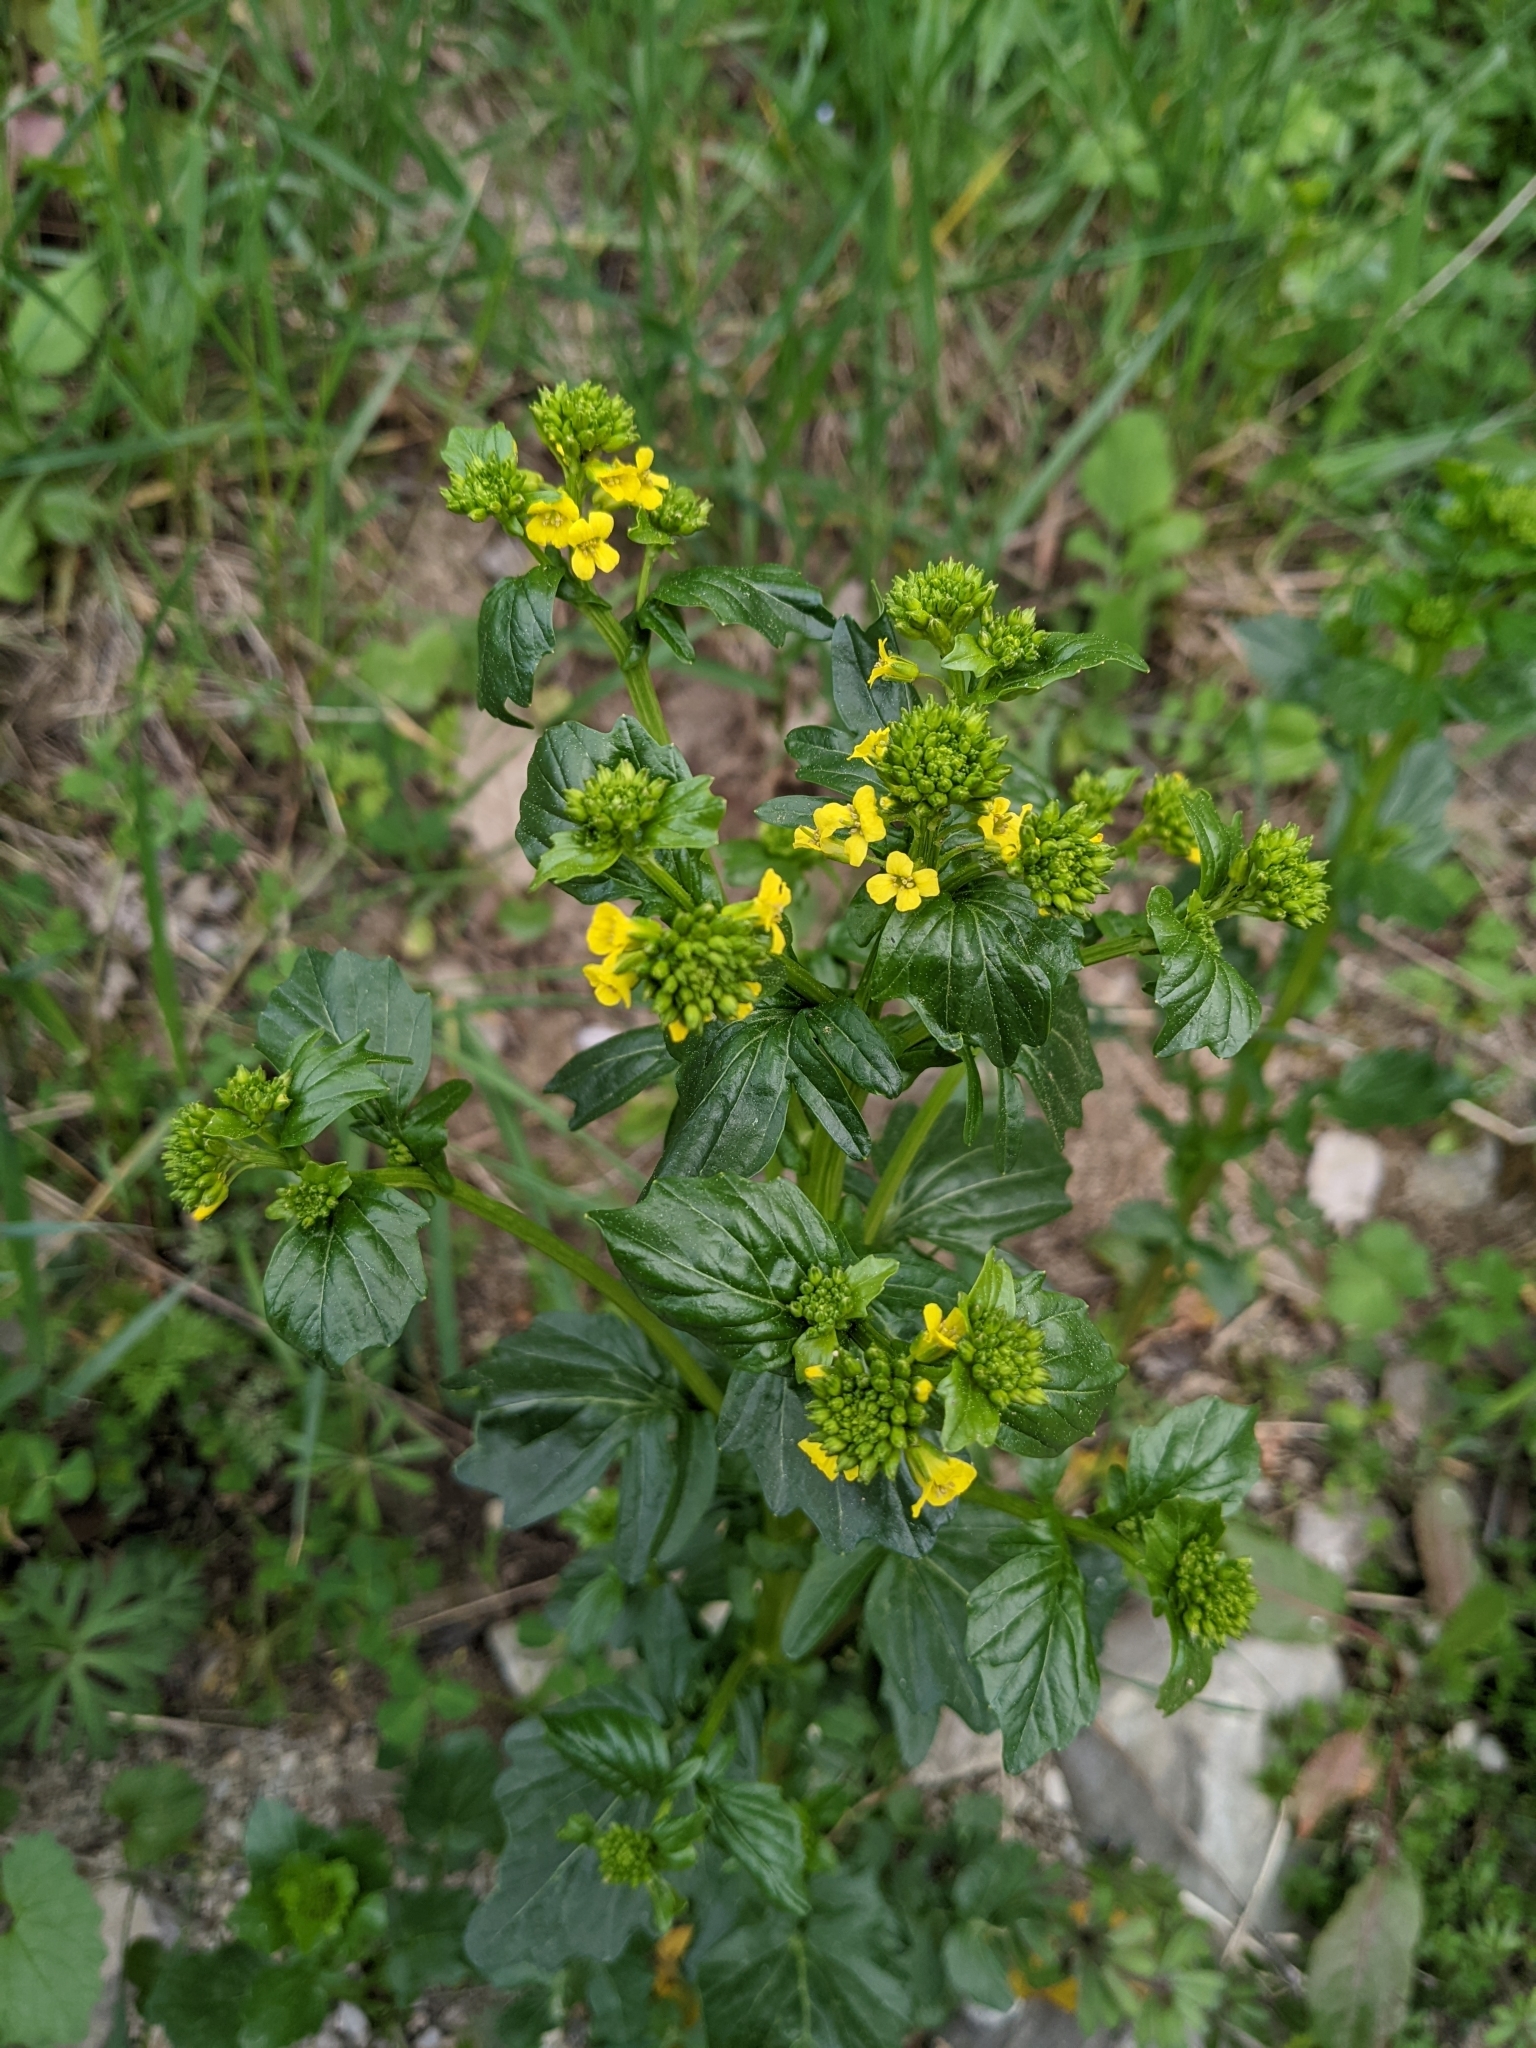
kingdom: Plantae
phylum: Tracheophyta
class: Magnoliopsida
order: Brassicales
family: Brassicaceae
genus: Barbarea
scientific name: Barbarea vulgaris
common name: Cressy-greens
